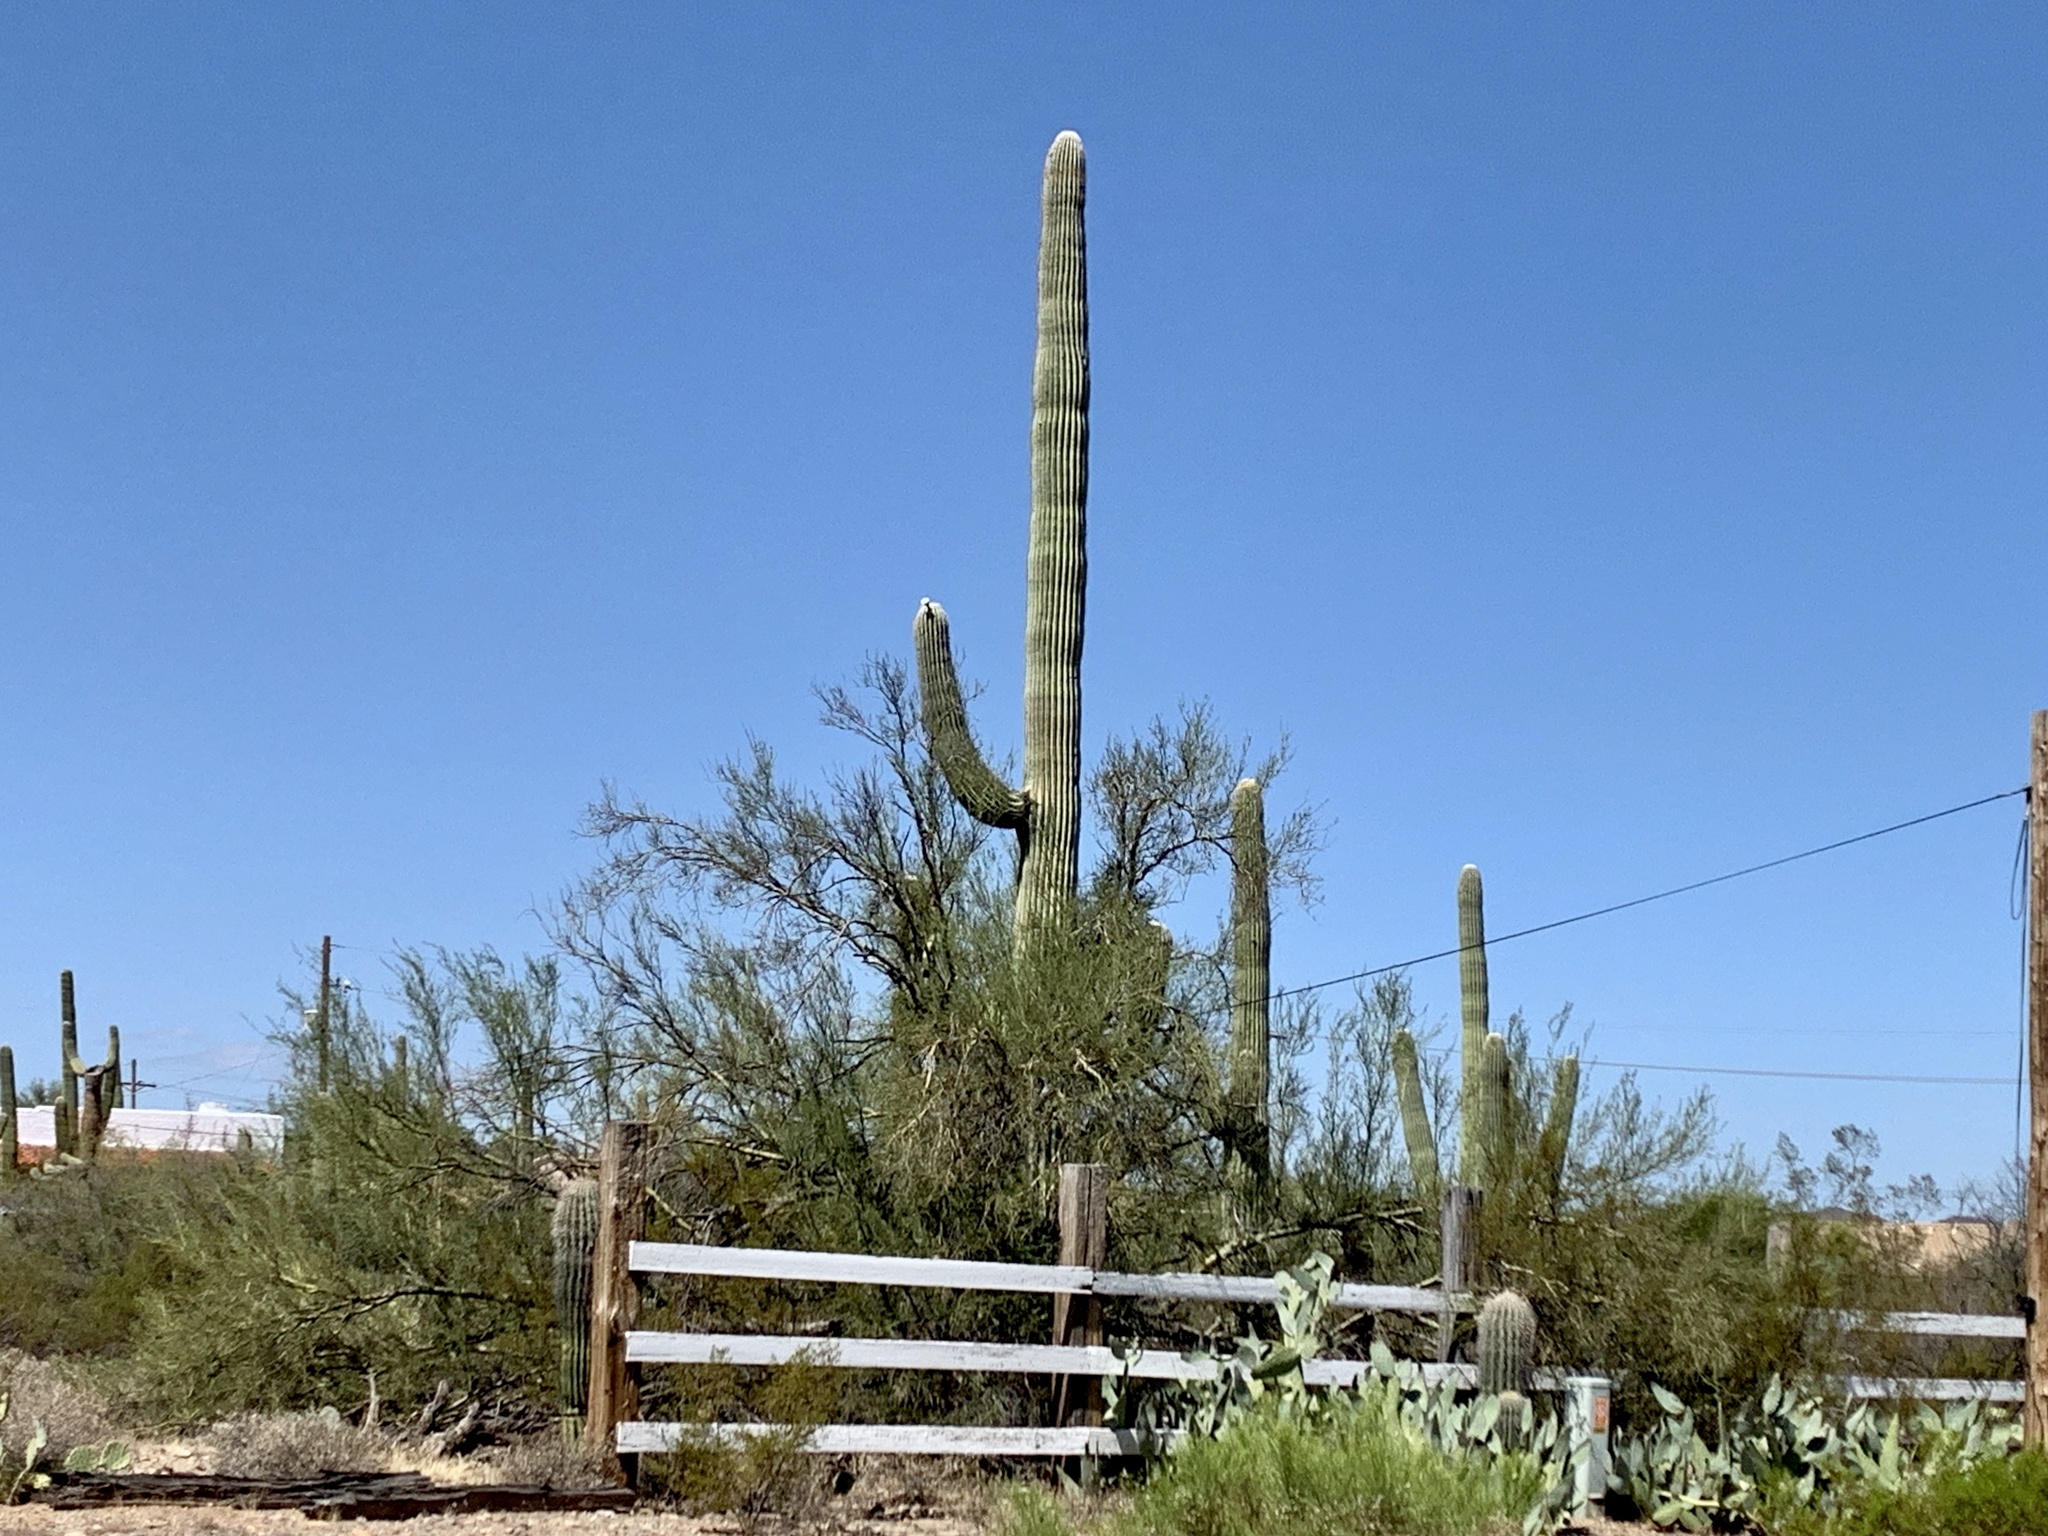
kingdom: Plantae
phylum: Tracheophyta
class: Magnoliopsida
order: Caryophyllales
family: Cactaceae
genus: Carnegiea
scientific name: Carnegiea gigantea
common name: Saguaro
